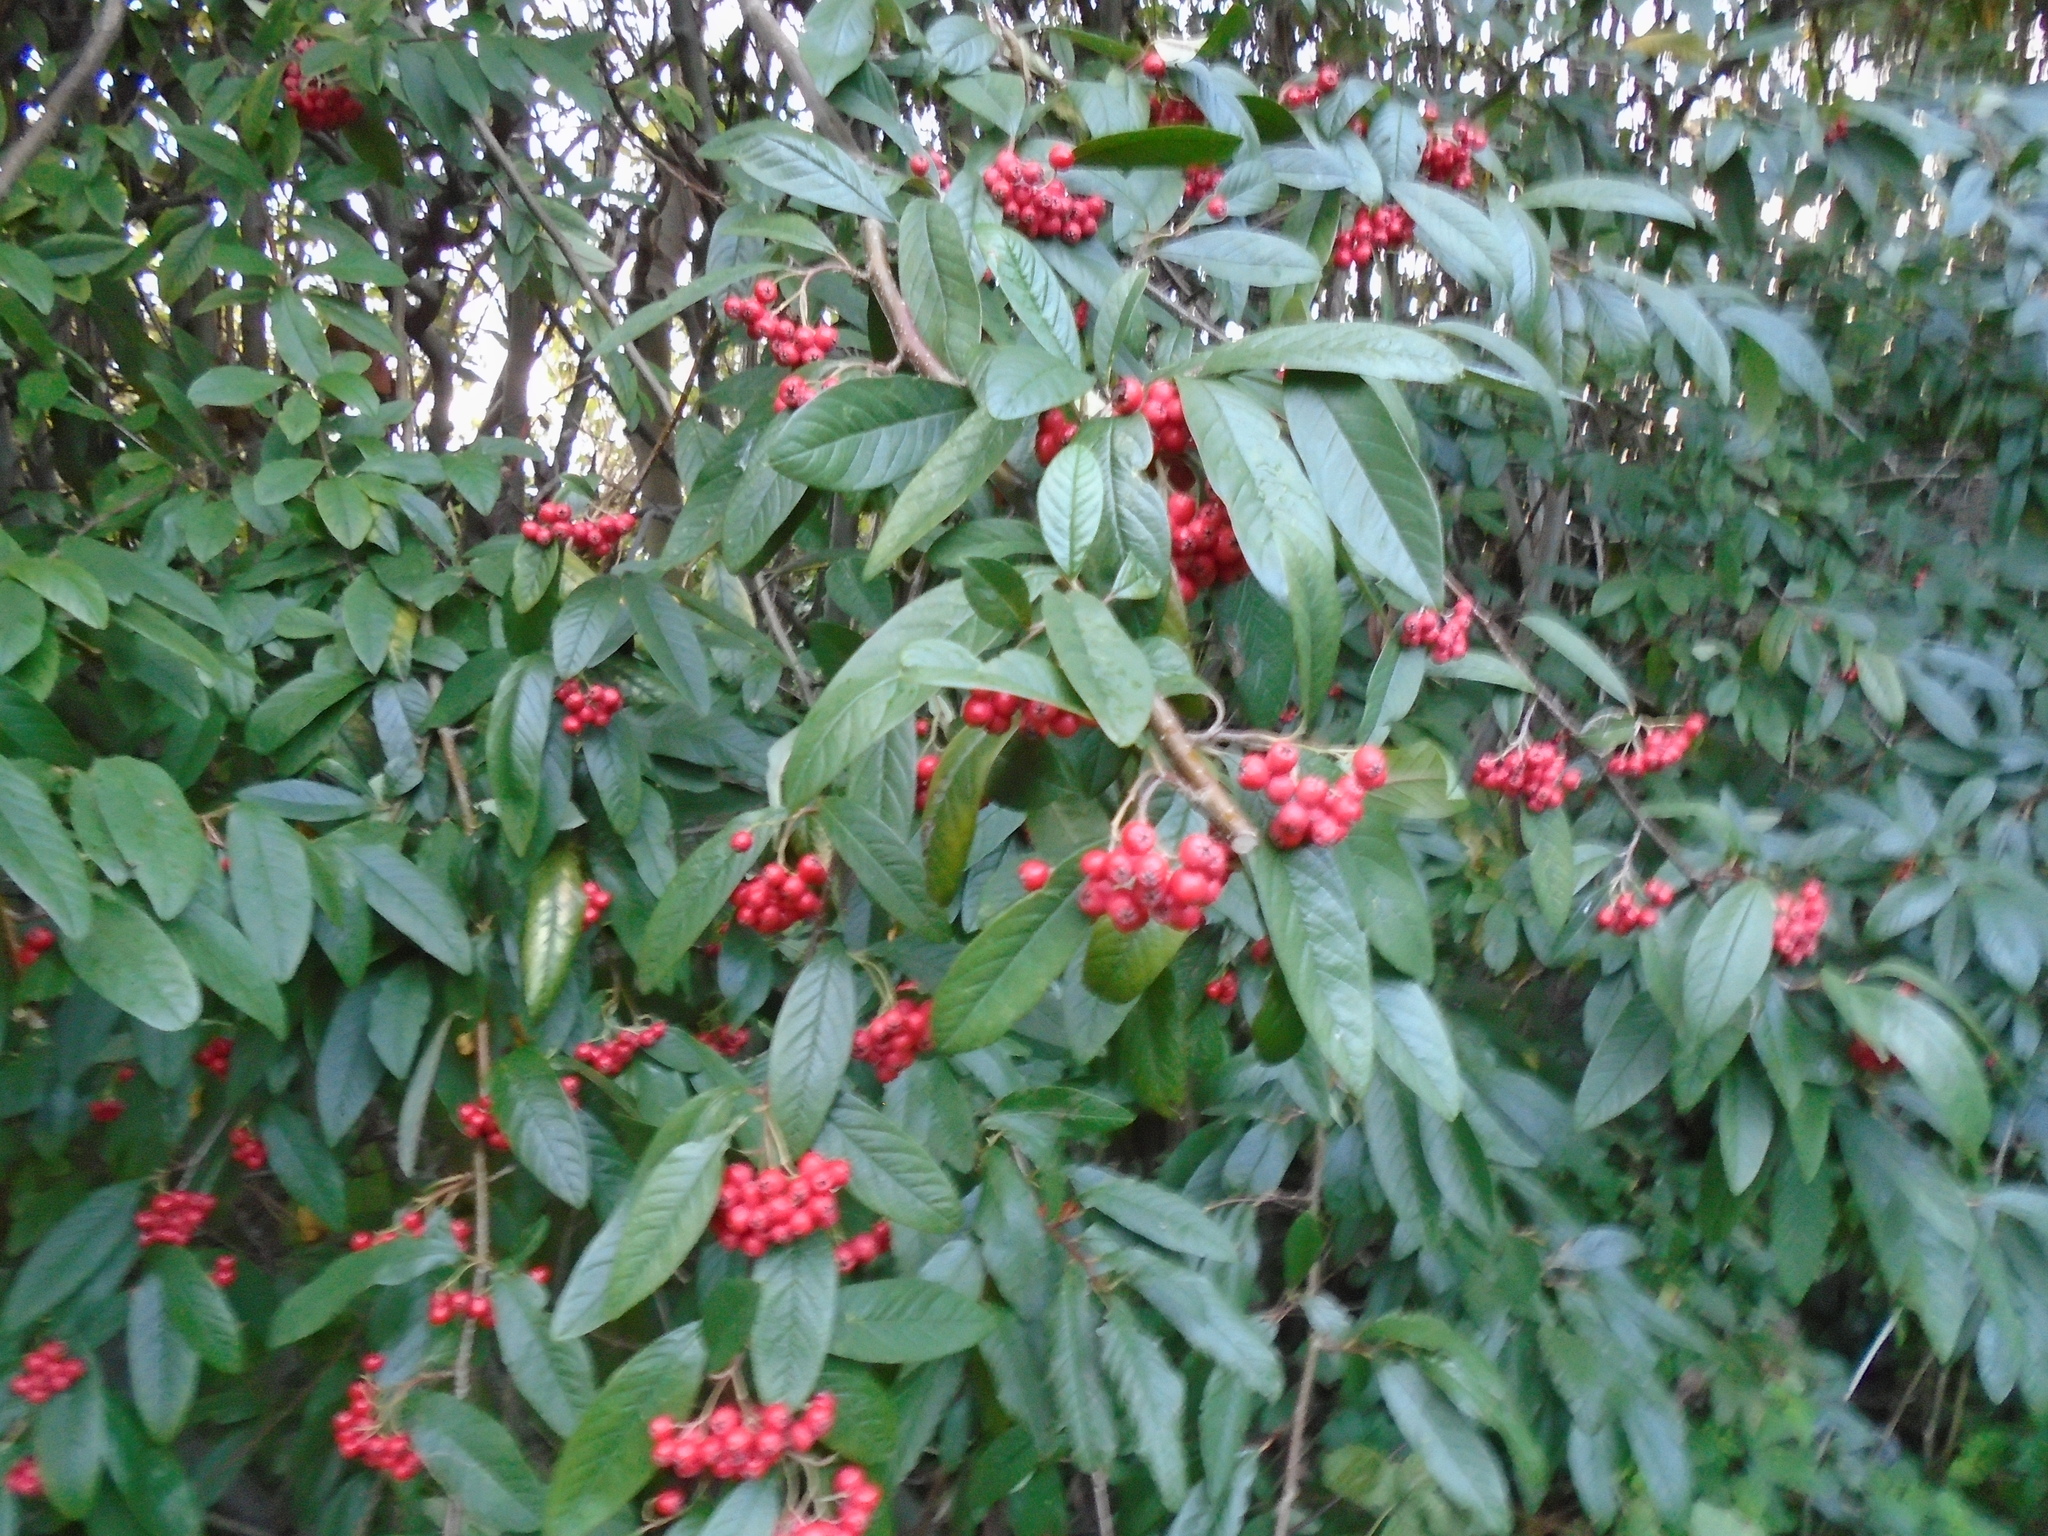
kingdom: Plantae
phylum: Tracheophyta
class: Magnoliopsida
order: Rosales
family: Rosaceae
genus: Cotoneaster
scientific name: Cotoneaster watereri
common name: Waterer's cotoneaster
